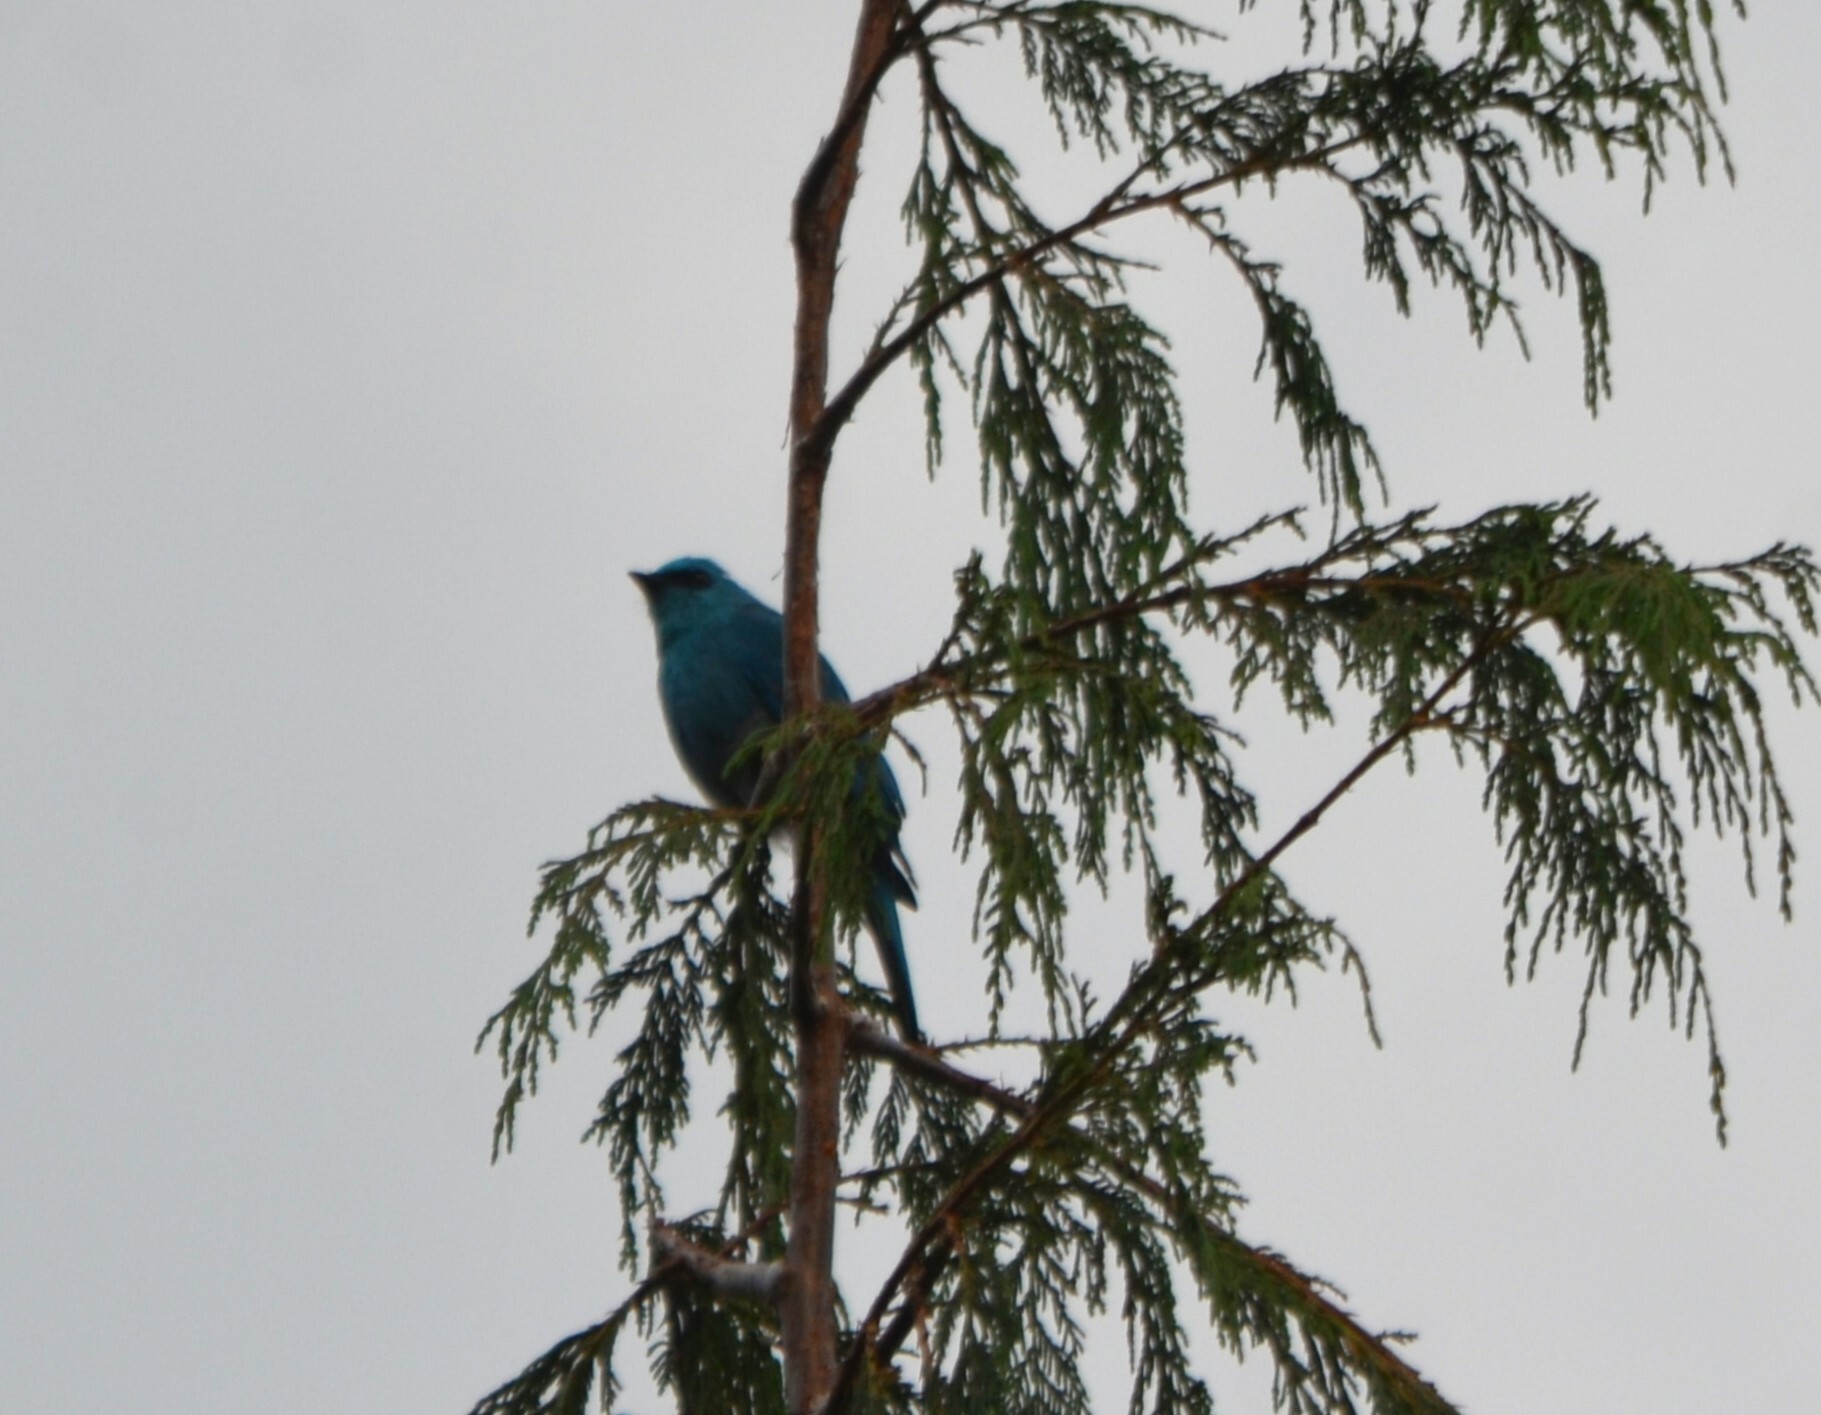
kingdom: Animalia
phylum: Chordata
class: Aves
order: Passeriformes
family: Muscicapidae
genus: Eumyias
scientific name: Eumyias thalassinus
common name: Verditer flycatcher
